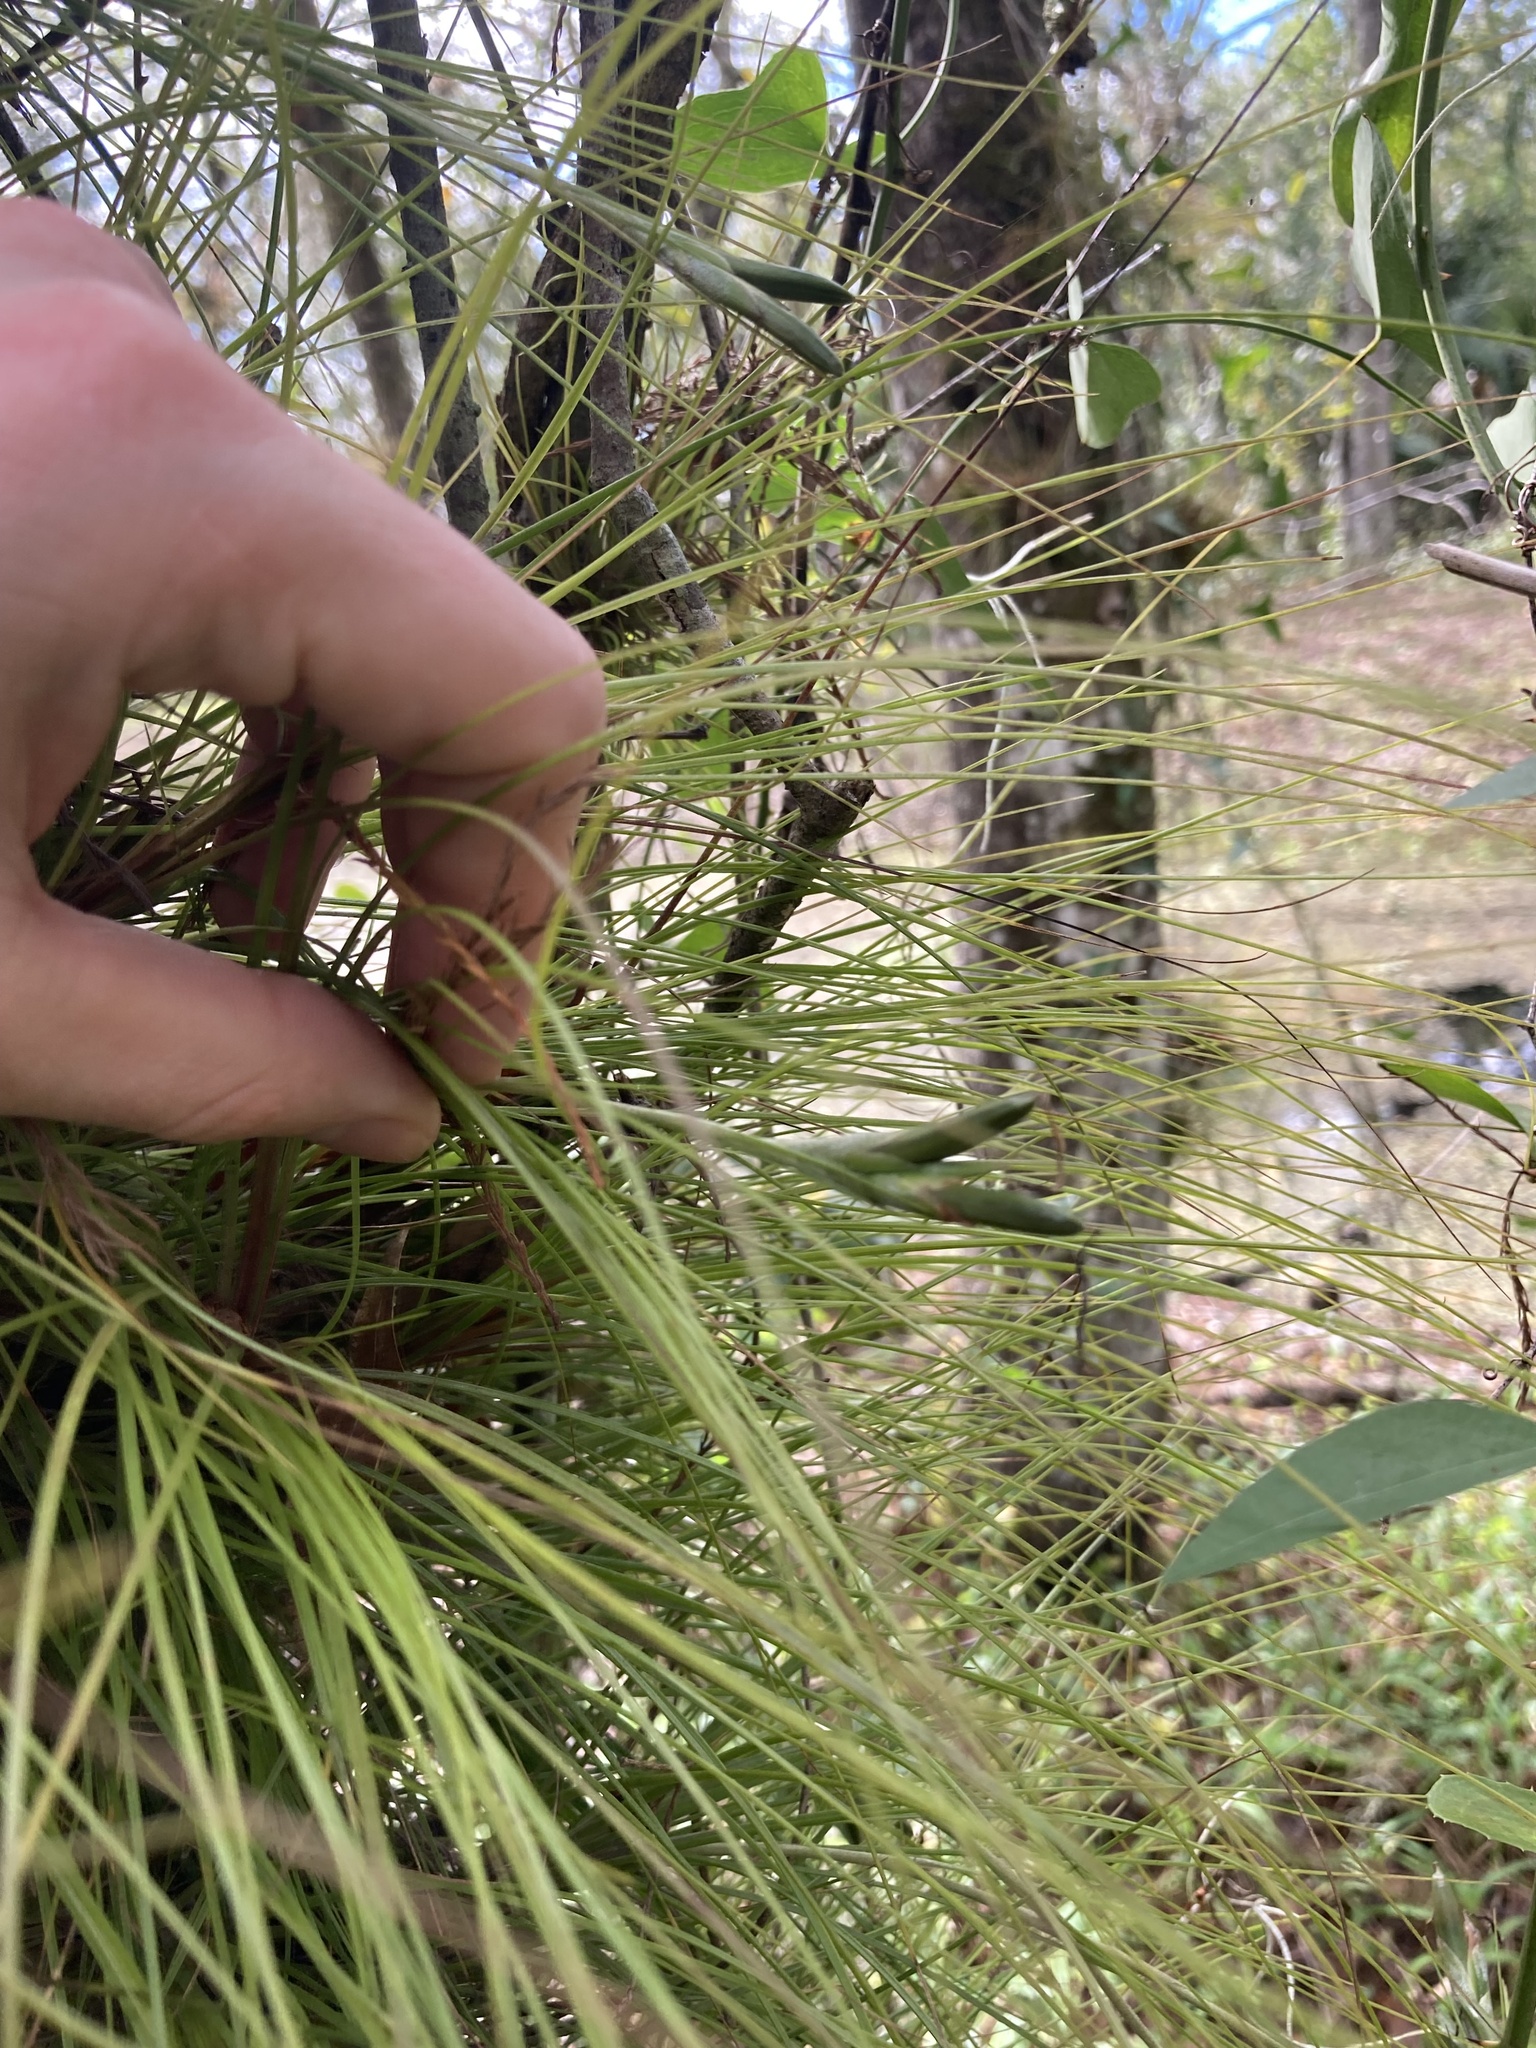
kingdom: Plantae
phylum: Tracheophyta
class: Liliopsida
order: Poales
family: Bromeliaceae
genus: Tillandsia
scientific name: Tillandsia setacea
